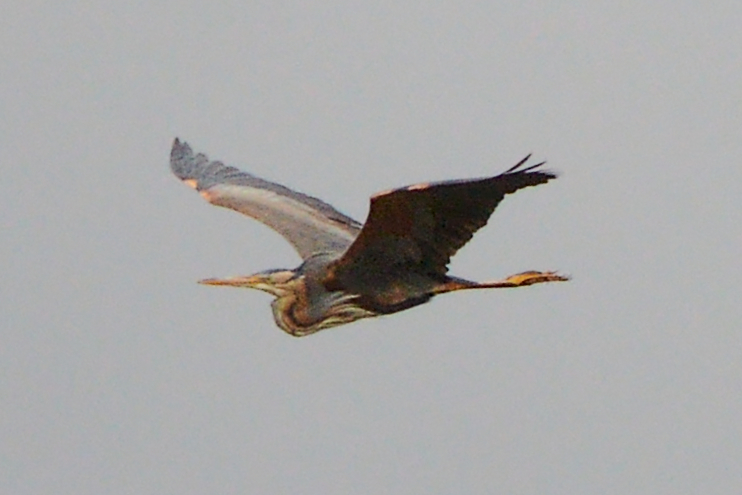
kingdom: Animalia
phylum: Chordata
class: Aves
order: Pelecaniformes
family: Ardeidae
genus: Ardea
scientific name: Ardea purpurea
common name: Purple heron
